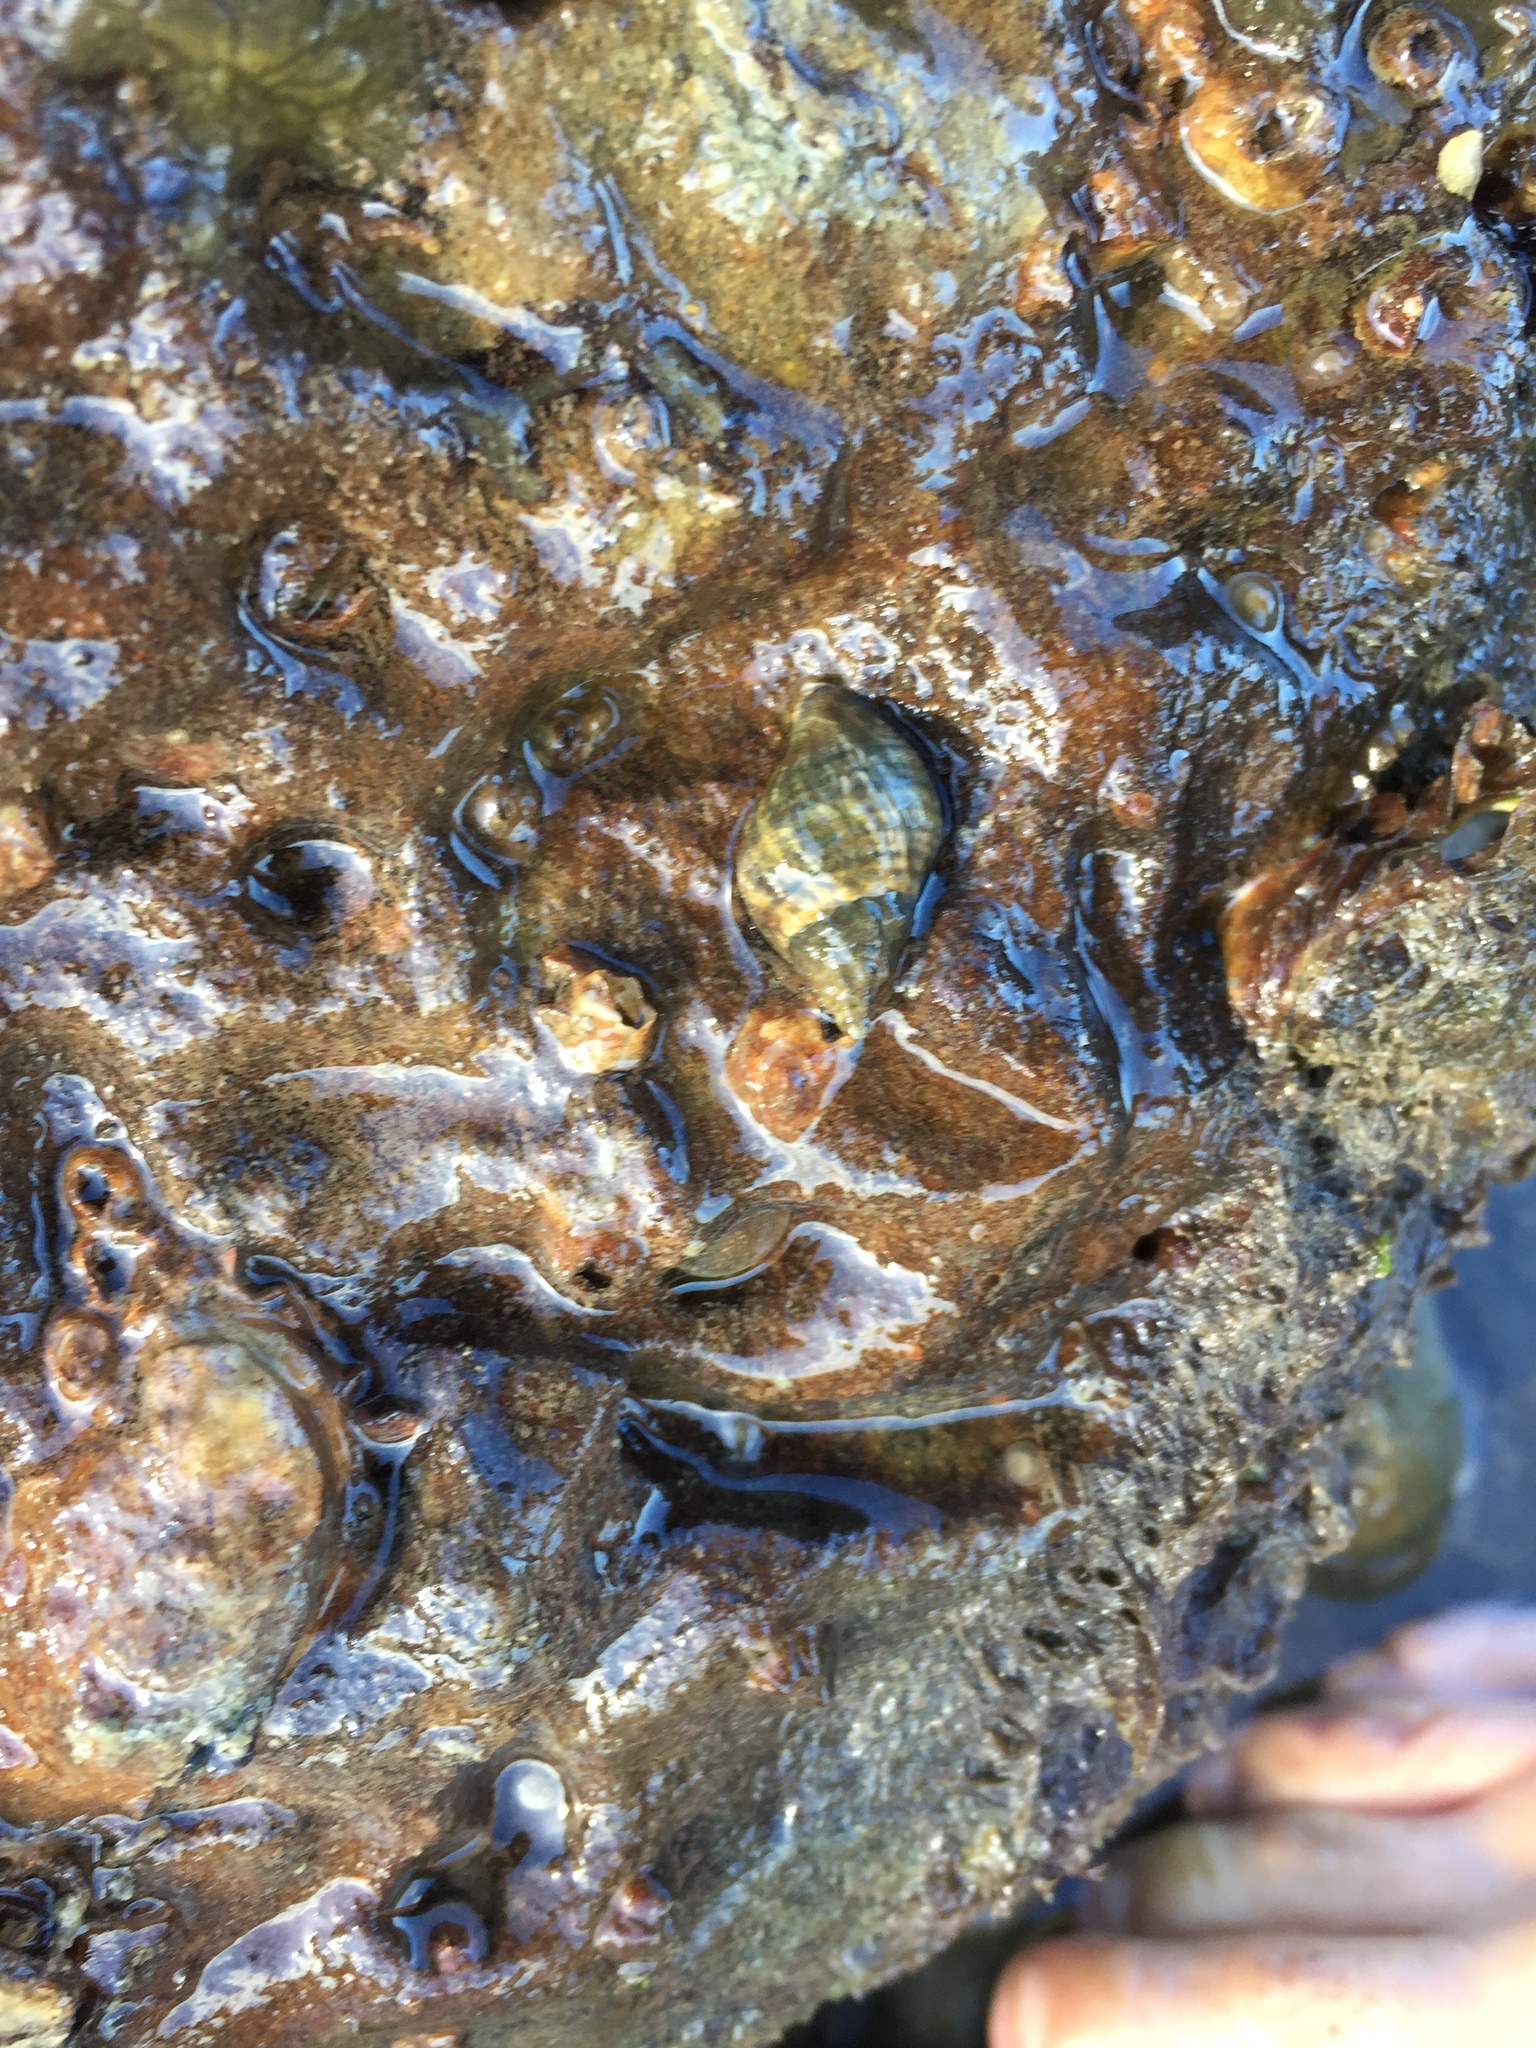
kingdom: Animalia
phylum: Mollusca
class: Gastropoda
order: Neogastropoda
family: Muricidae
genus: Haustrum
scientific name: Haustrum albomarginatum
